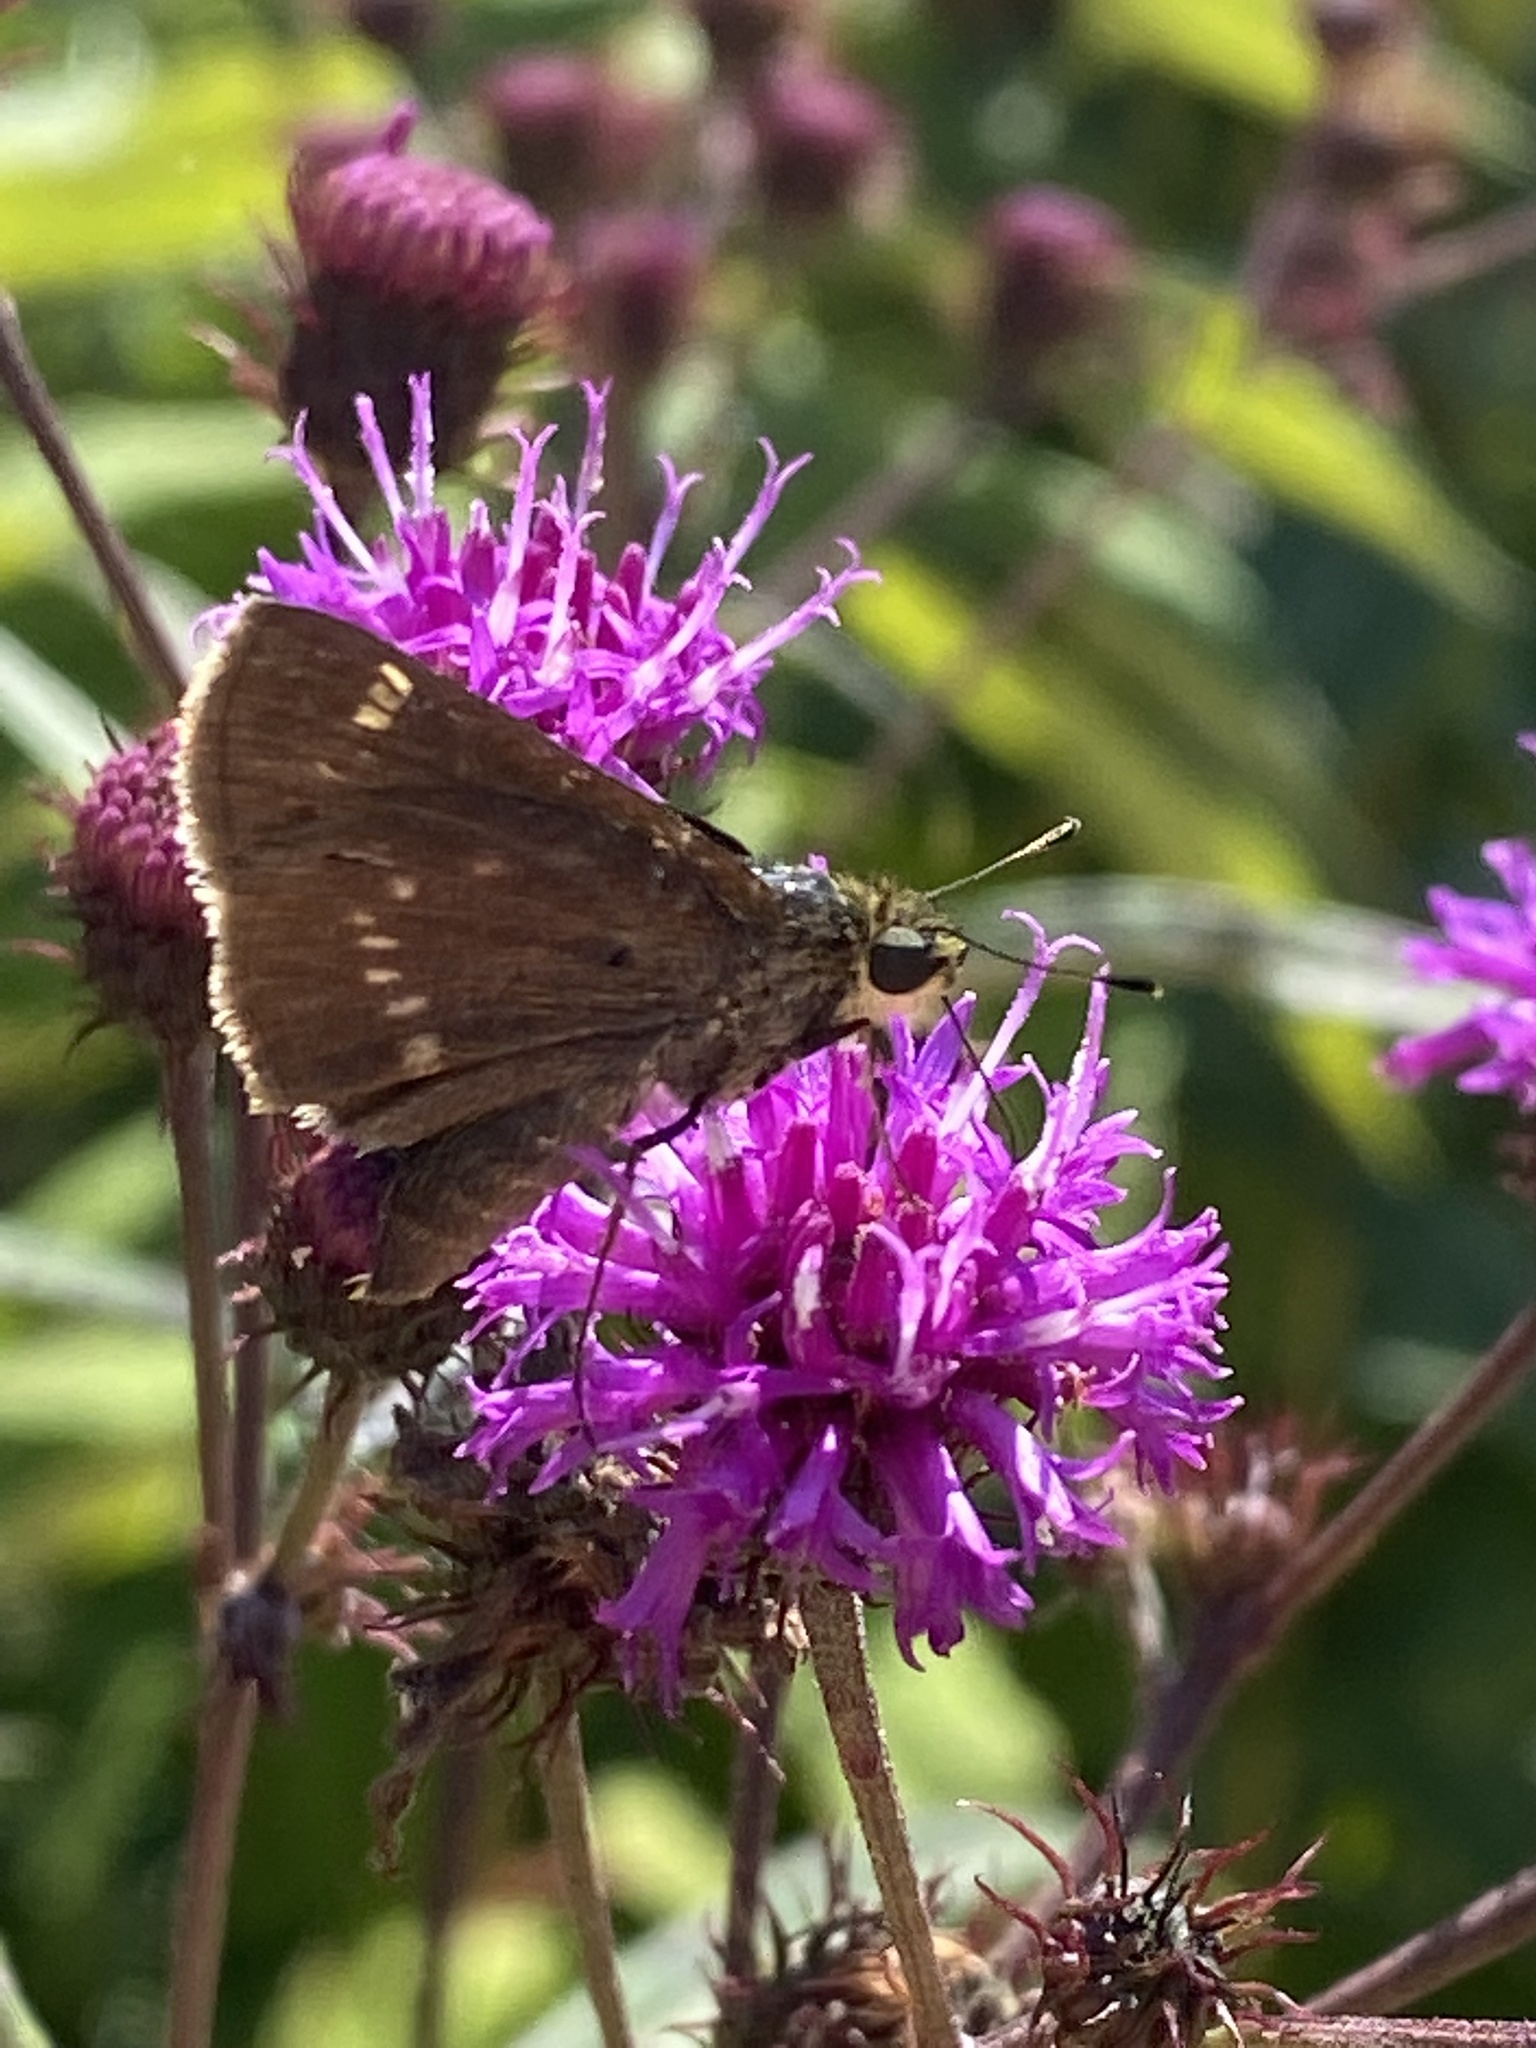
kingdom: Animalia
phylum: Arthropoda
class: Insecta
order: Lepidoptera
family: Hesperiidae
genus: Vernia
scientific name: Vernia verna
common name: Little glassywing
